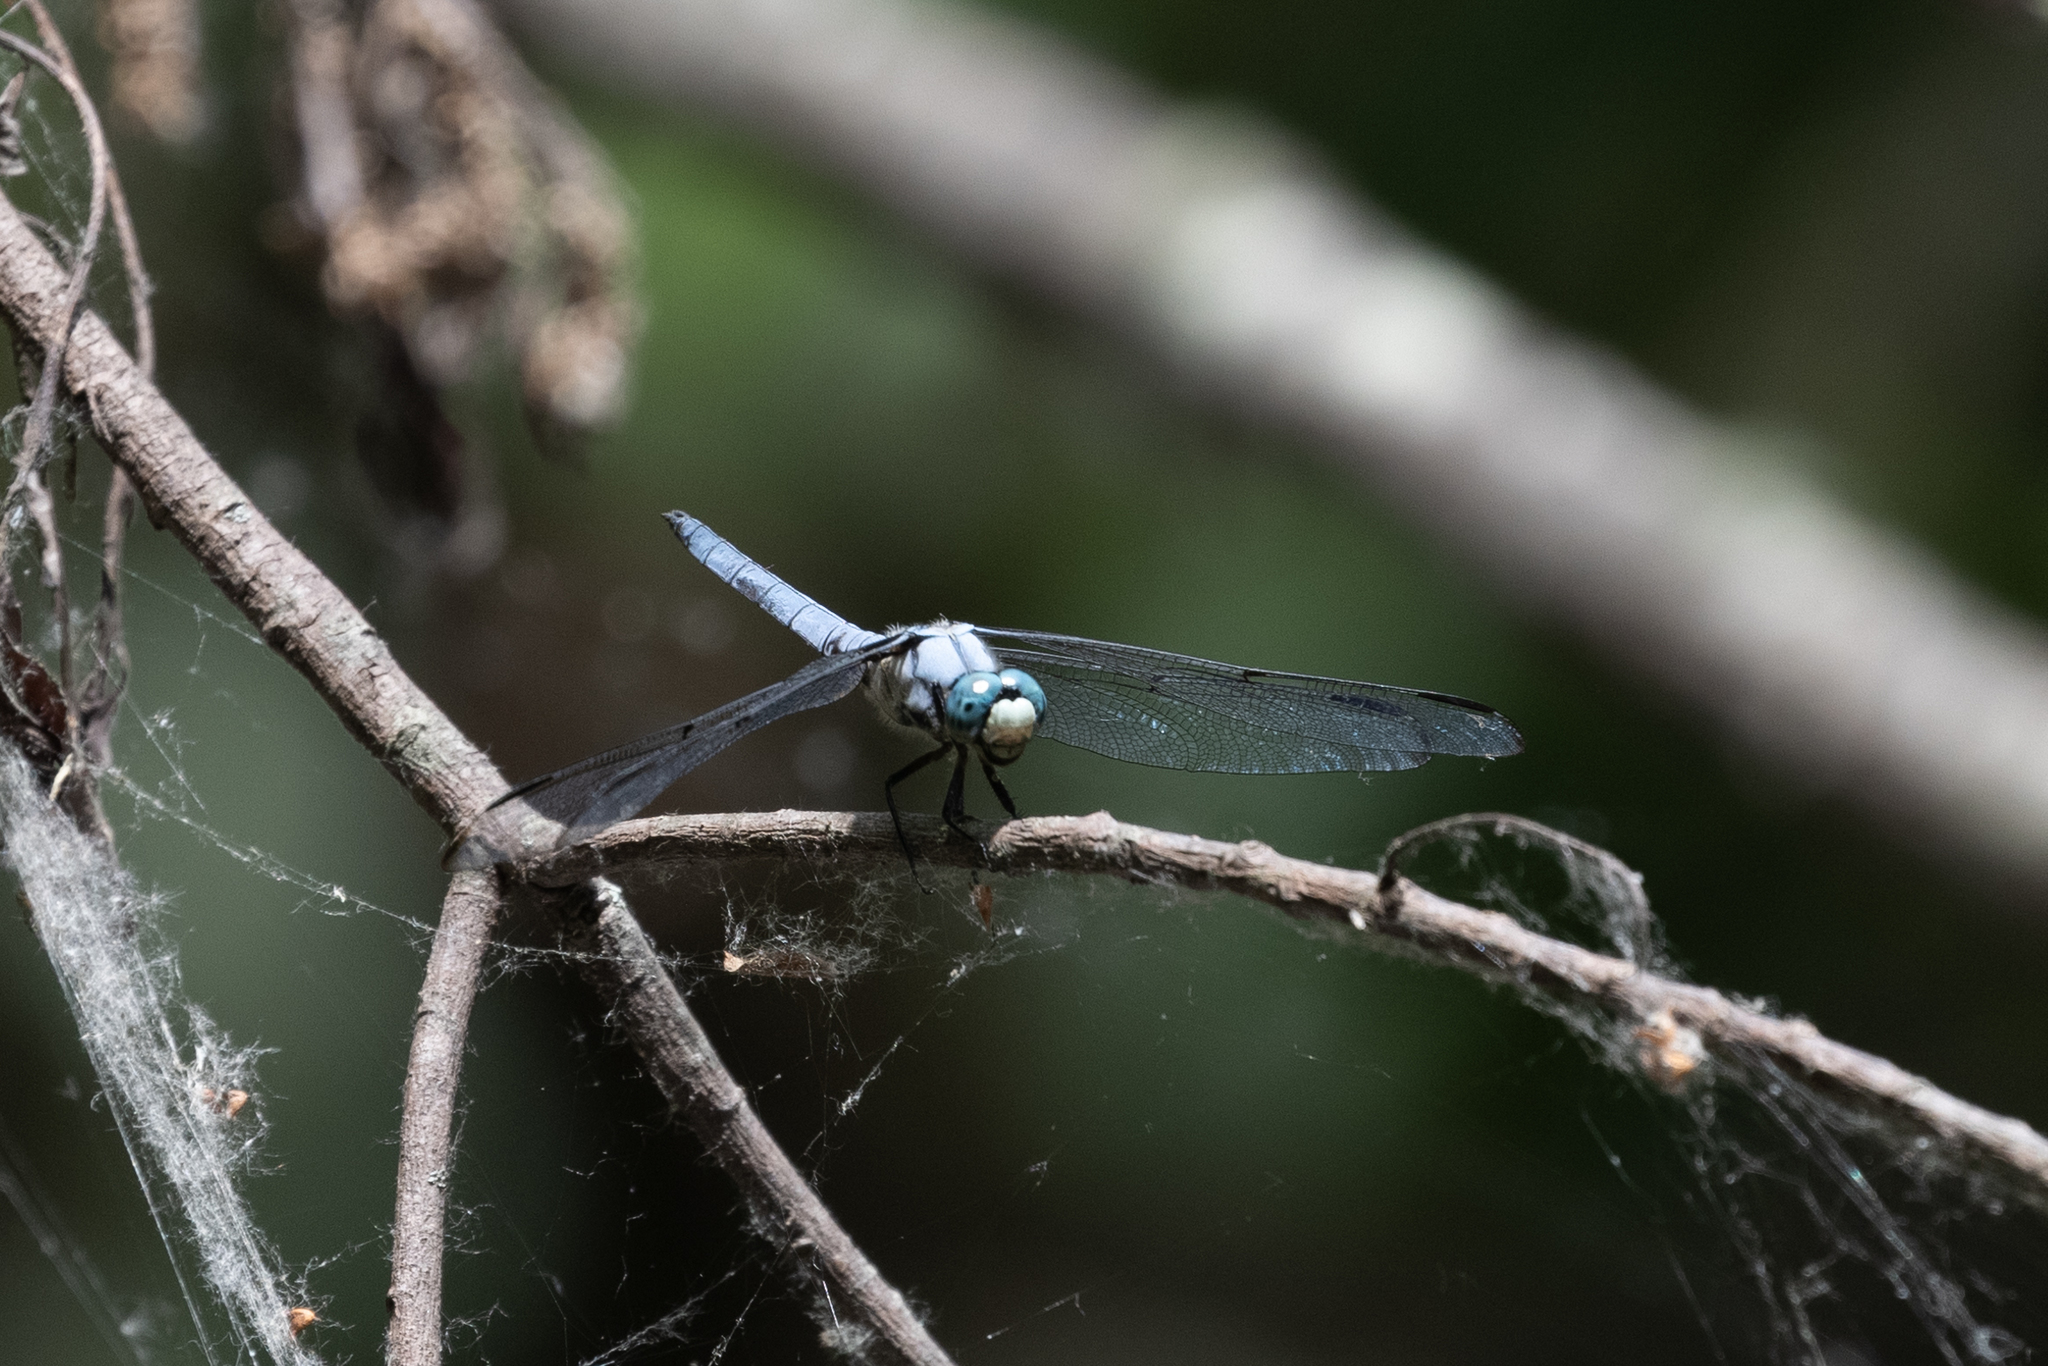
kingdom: Animalia
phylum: Arthropoda
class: Insecta
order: Odonata
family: Libellulidae
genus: Libellula
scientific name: Libellula vibrans
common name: Great blue skimmer
